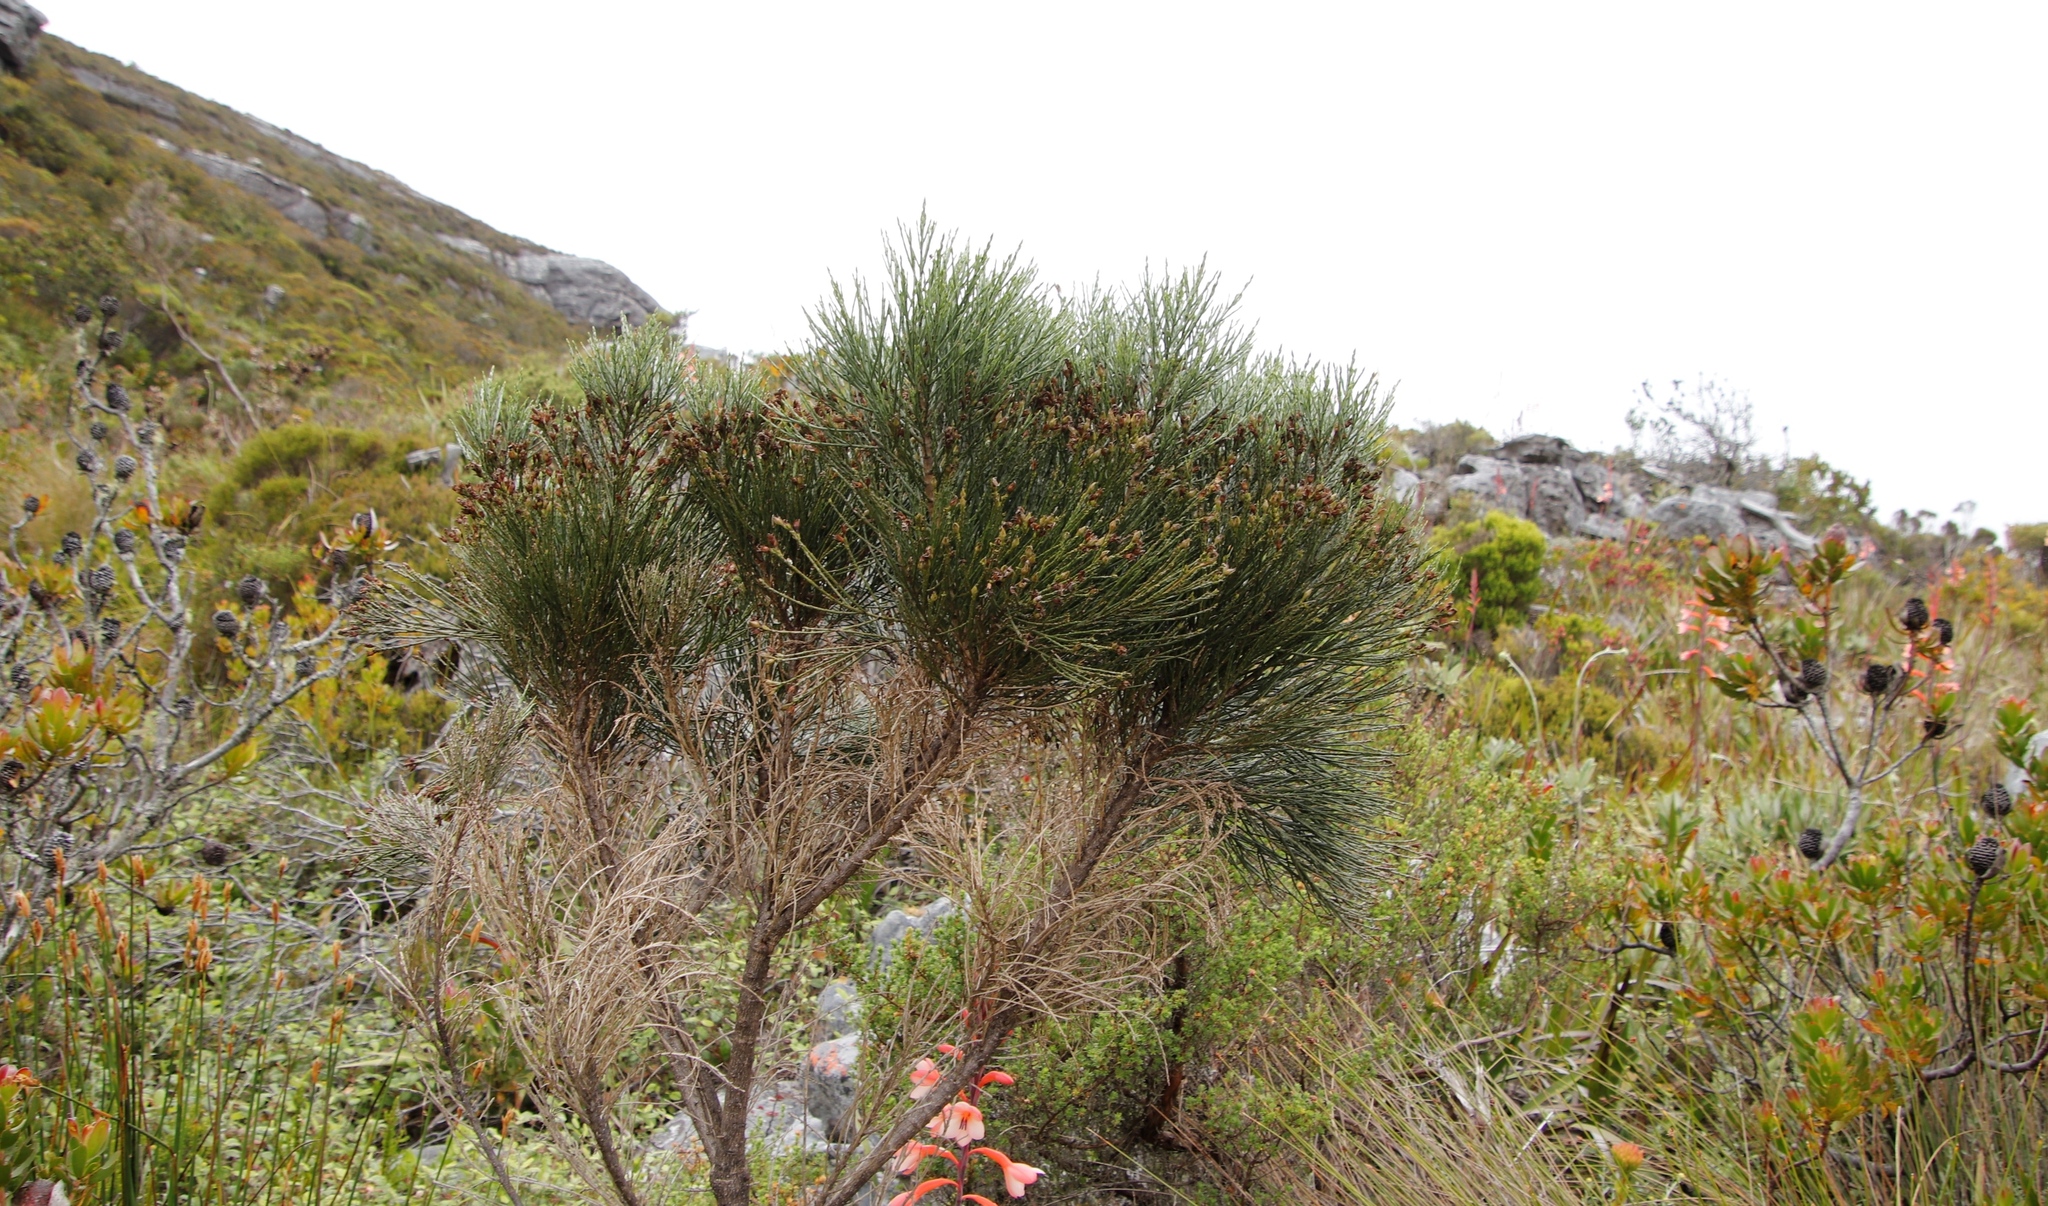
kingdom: Plantae
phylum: Tracheophyta
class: Magnoliopsida
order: Fabales
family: Fabaceae
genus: Psoralea
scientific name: Psoralea congesta
